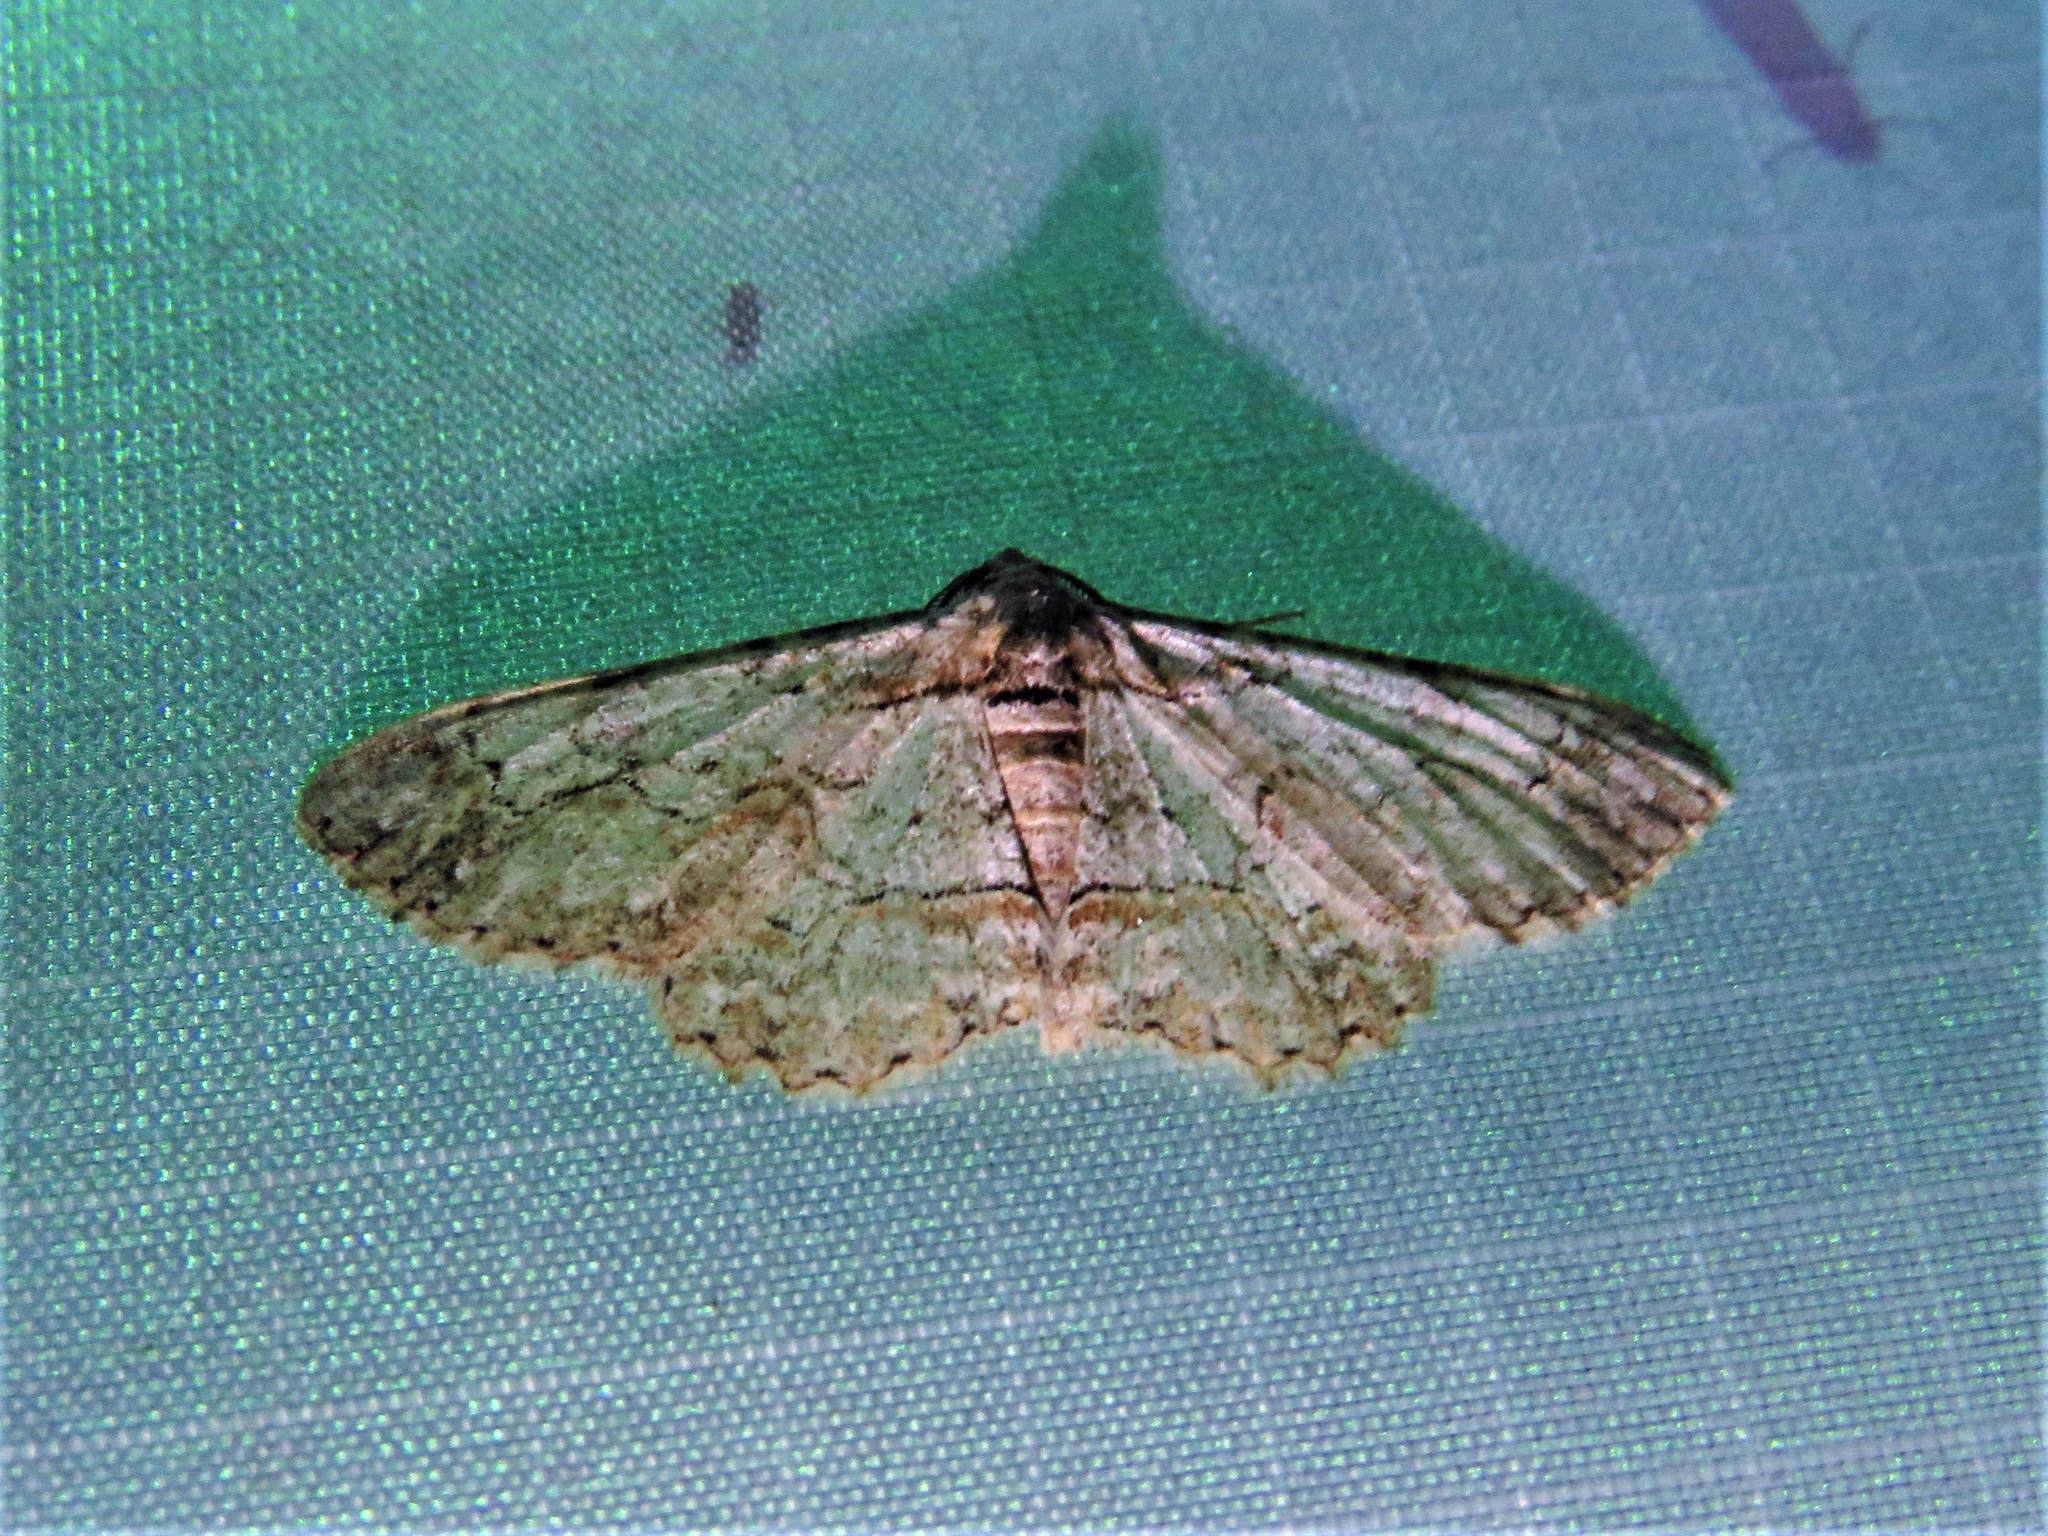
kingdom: Animalia
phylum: Arthropoda
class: Insecta
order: Lepidoptera
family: Geometridae
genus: Iridopsis
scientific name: Iridopsis defectaria
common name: Brown-shaded gray
